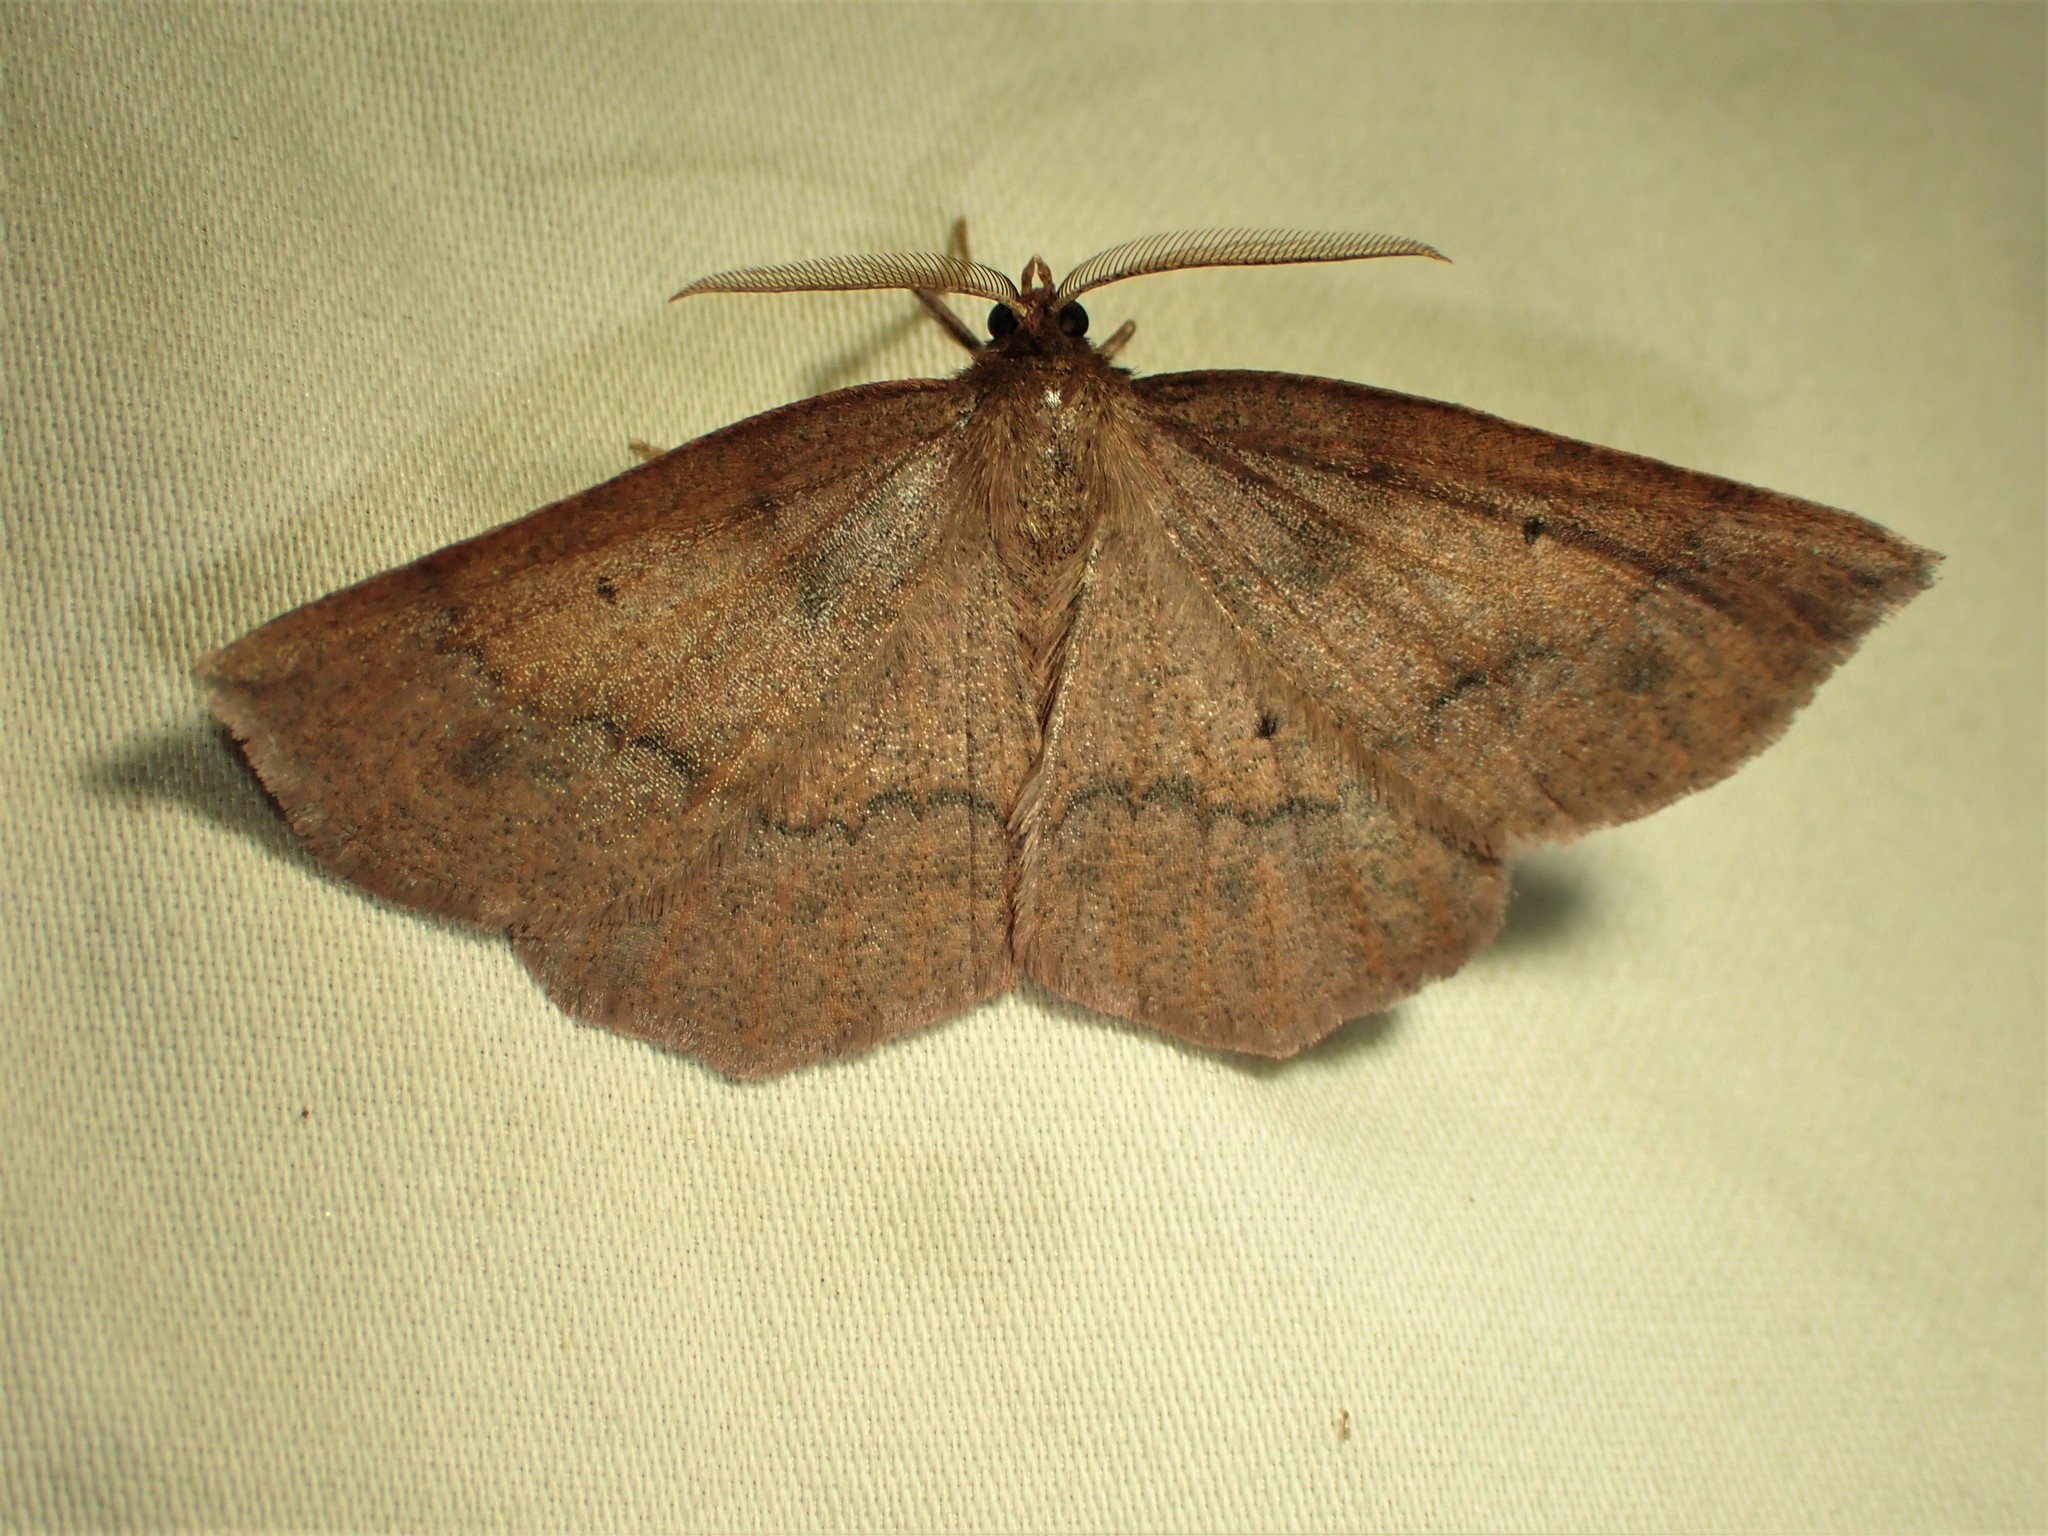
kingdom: Animalia
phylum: Arthropoda
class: Insecta
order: Lepidoptera
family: Geometridae
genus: Metarranthis
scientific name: Metarranthis duaria
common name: Ruddy metarranthis moth
